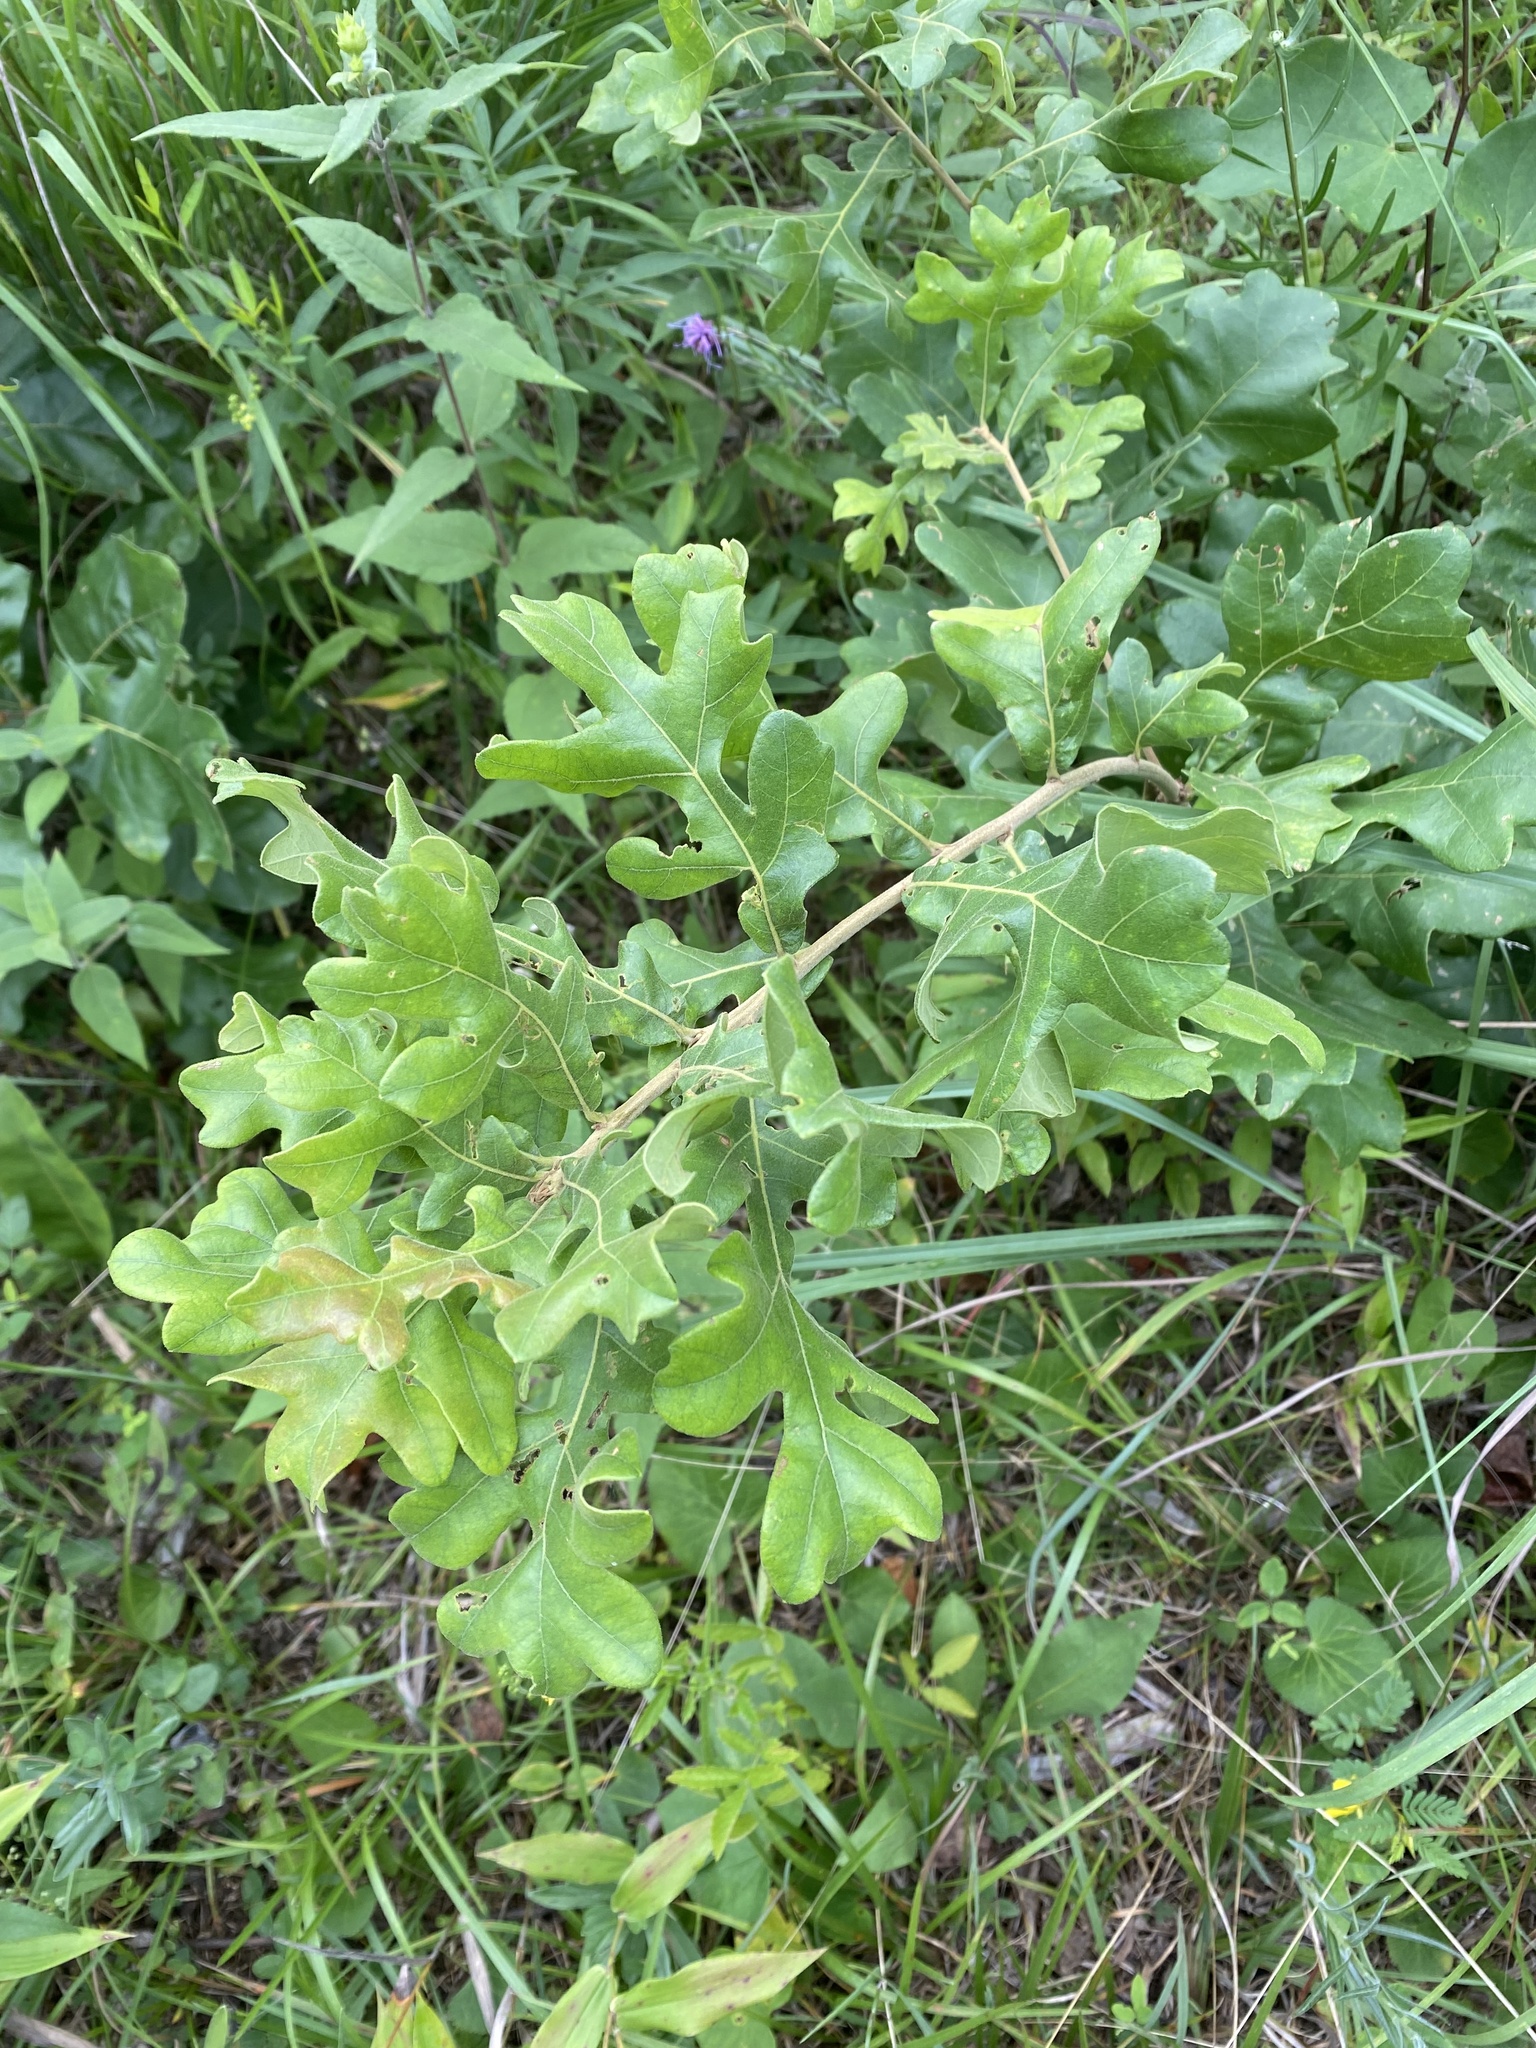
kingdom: Plantae
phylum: Tracheophyta
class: Magnoliopsida
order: Fagales
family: Fagaceae
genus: Quercus
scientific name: Quercus stellata
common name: Post oak
